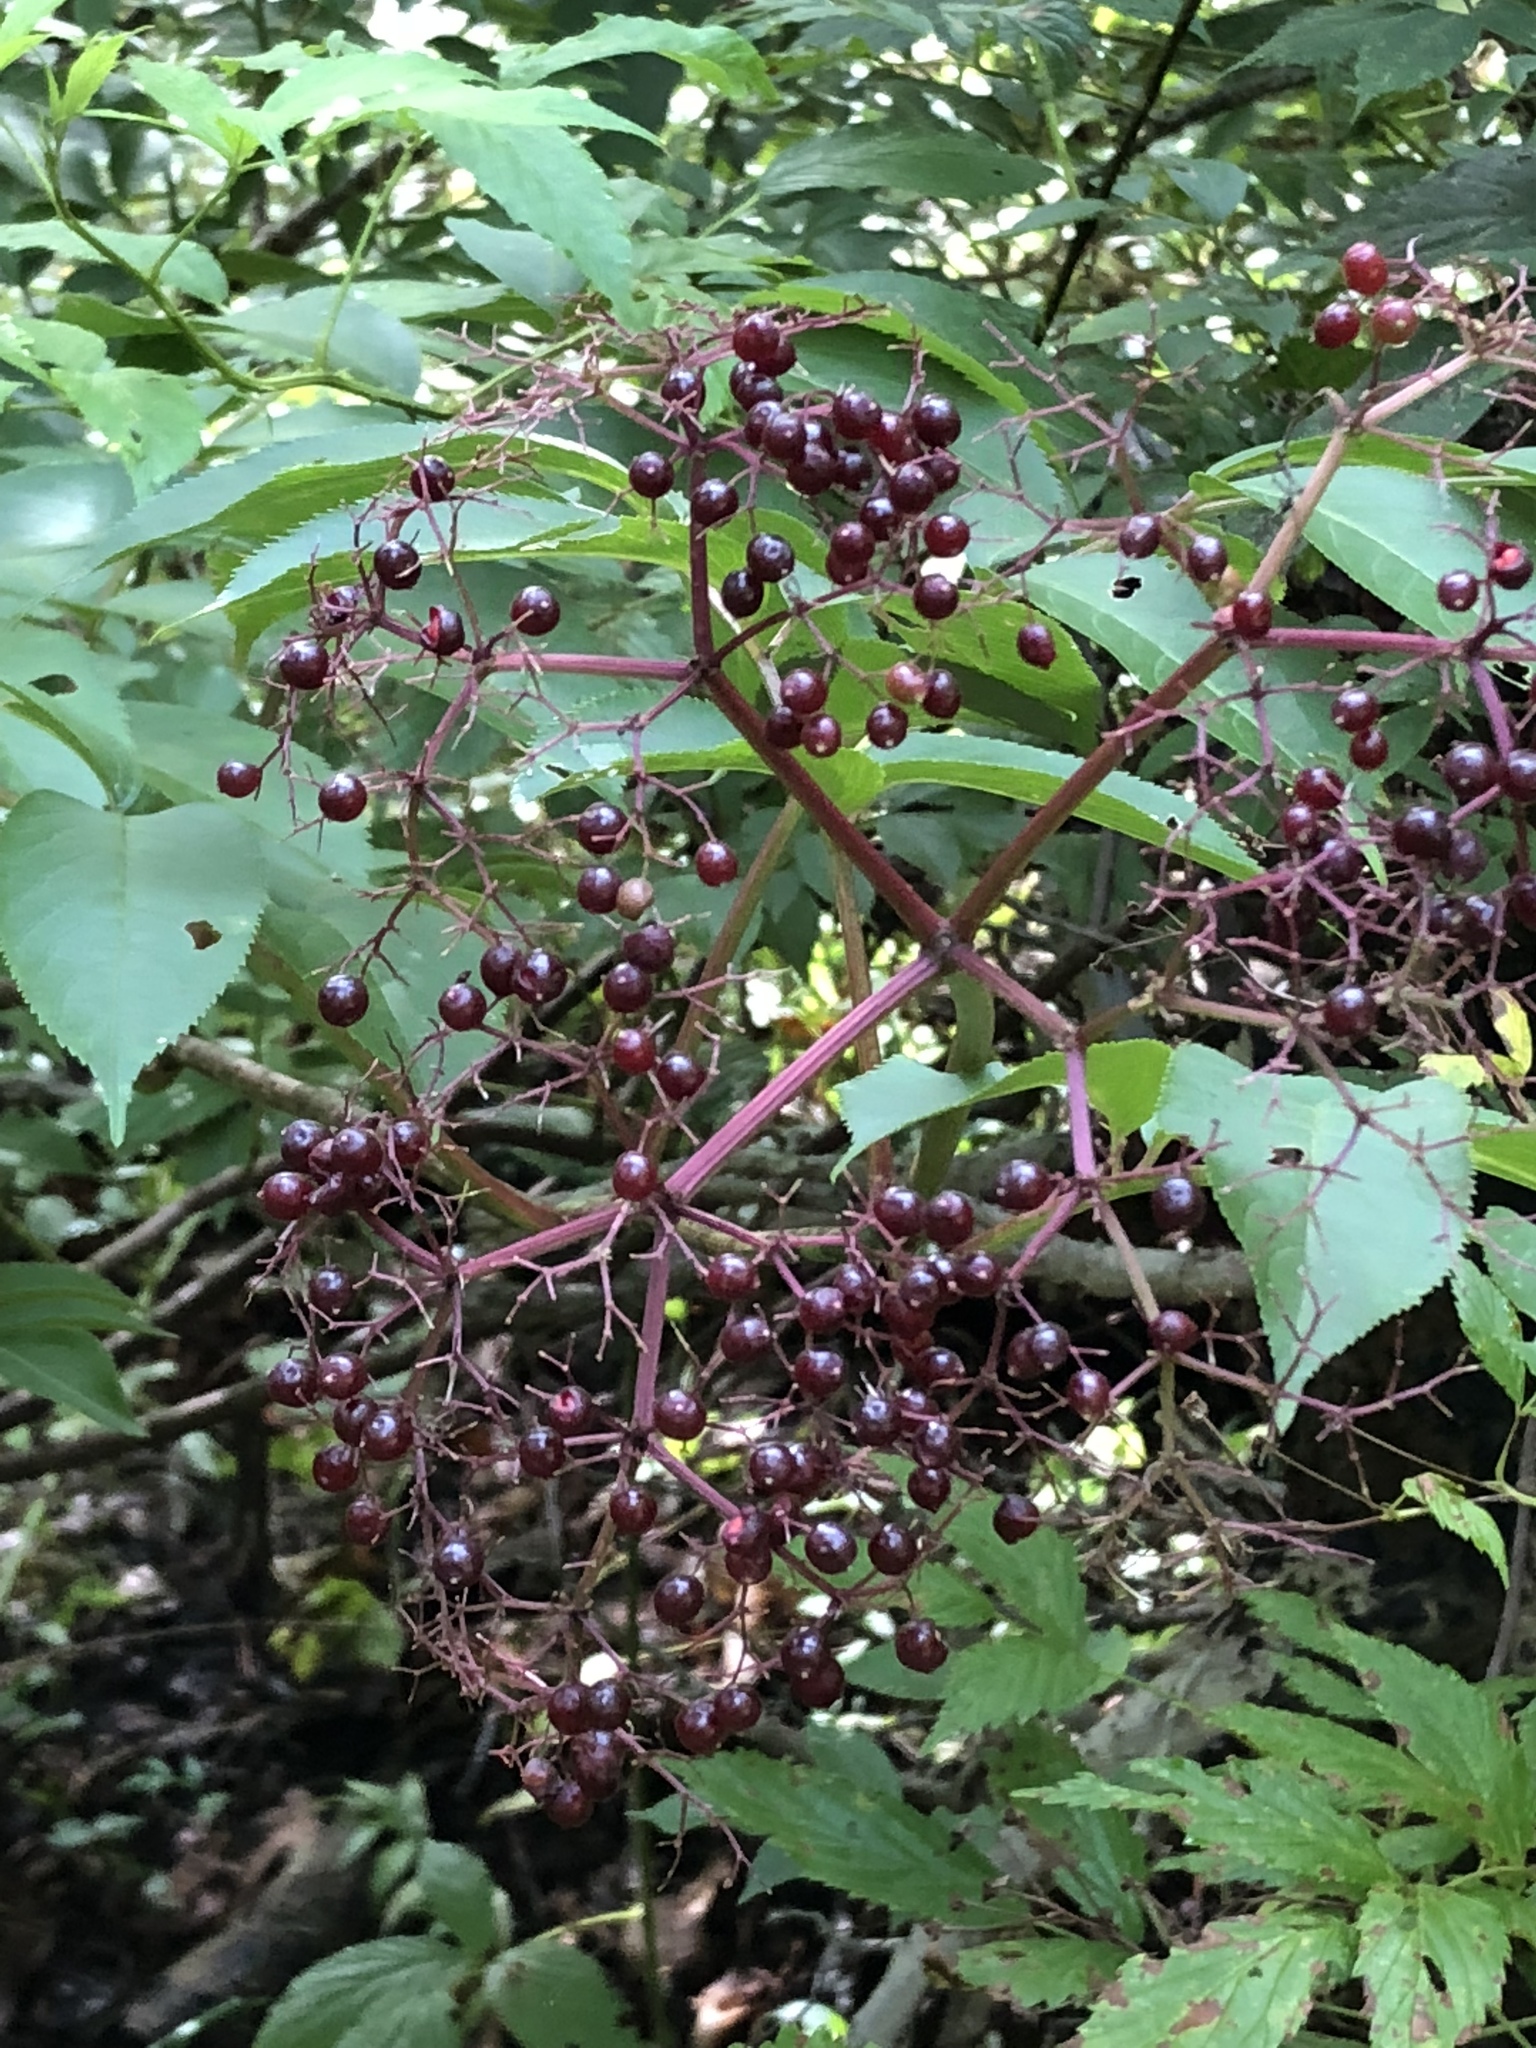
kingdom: Plantae
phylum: Tracheophyta
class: Magnoliopsida
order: Dipsacales
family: Viburnaceae
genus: Sambucus
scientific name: Sambucus canadensis
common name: American elder
